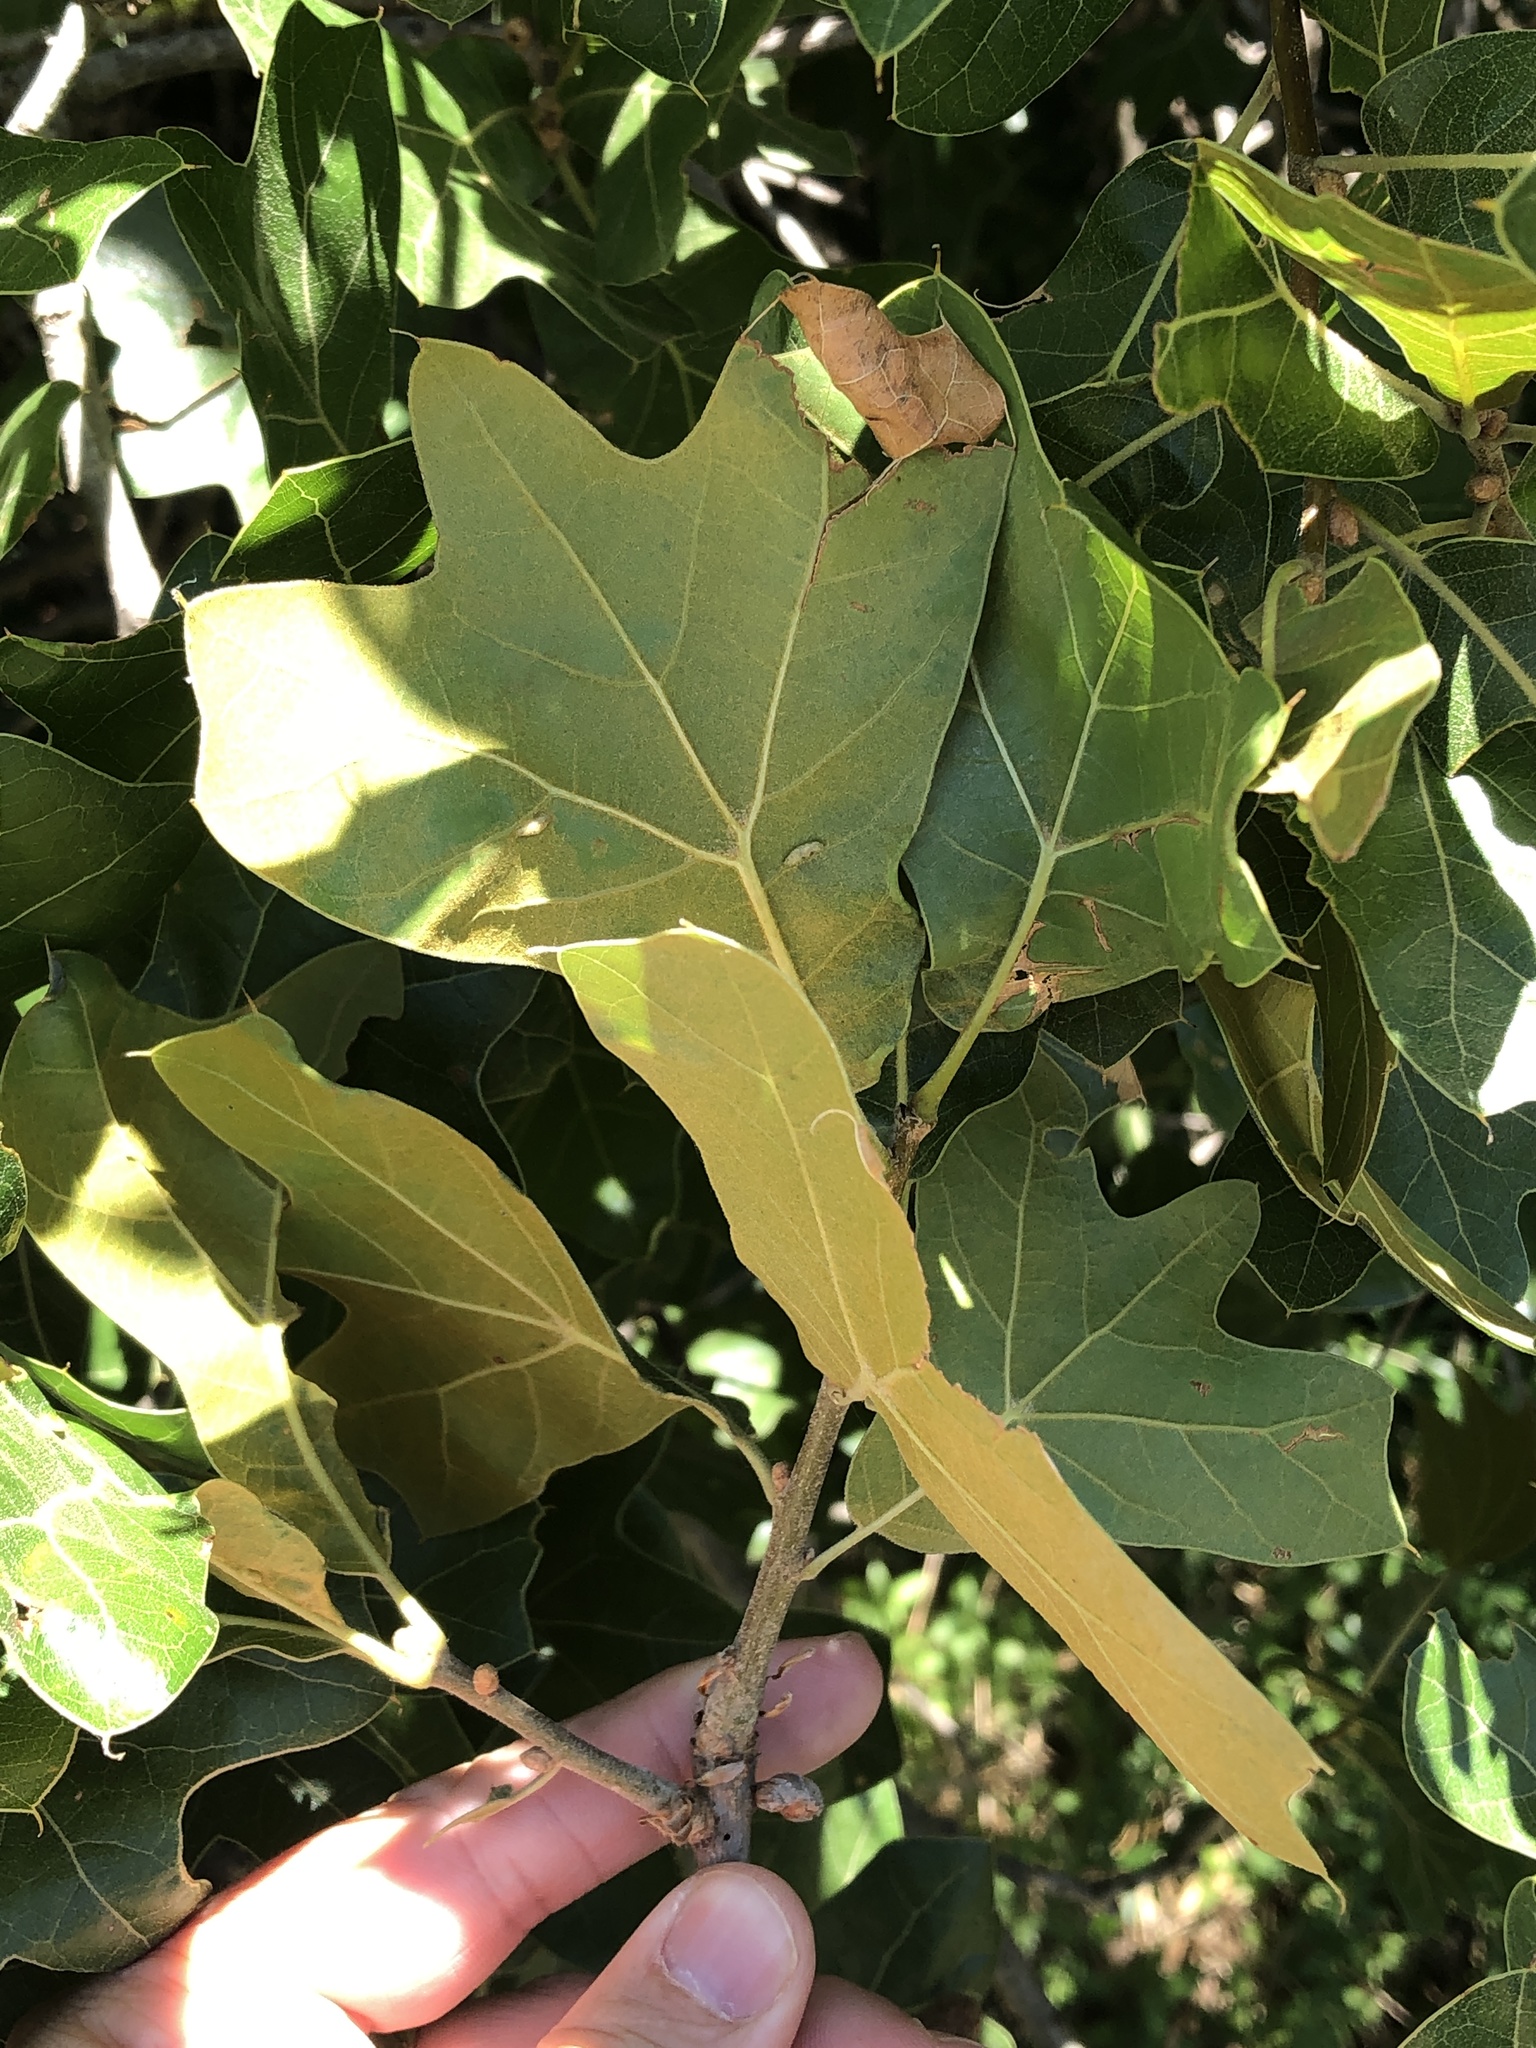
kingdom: Plantae
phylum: Tracheophyta
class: Magnoliopsida
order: Fagales
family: Fagaceae
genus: Quercus
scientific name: Quercus marilandica
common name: Blackjack oak
